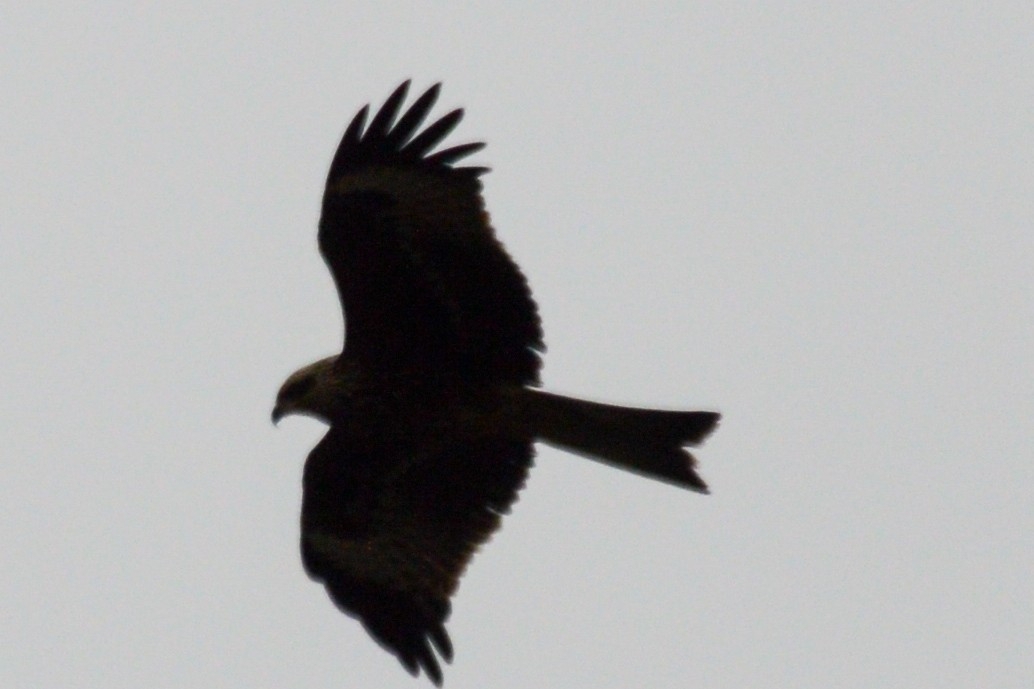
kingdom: Animalia
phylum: Chordata
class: Aves
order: Accipitriformes
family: Accipitridae
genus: Milvus
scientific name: Milvus migrans
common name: Black kite
